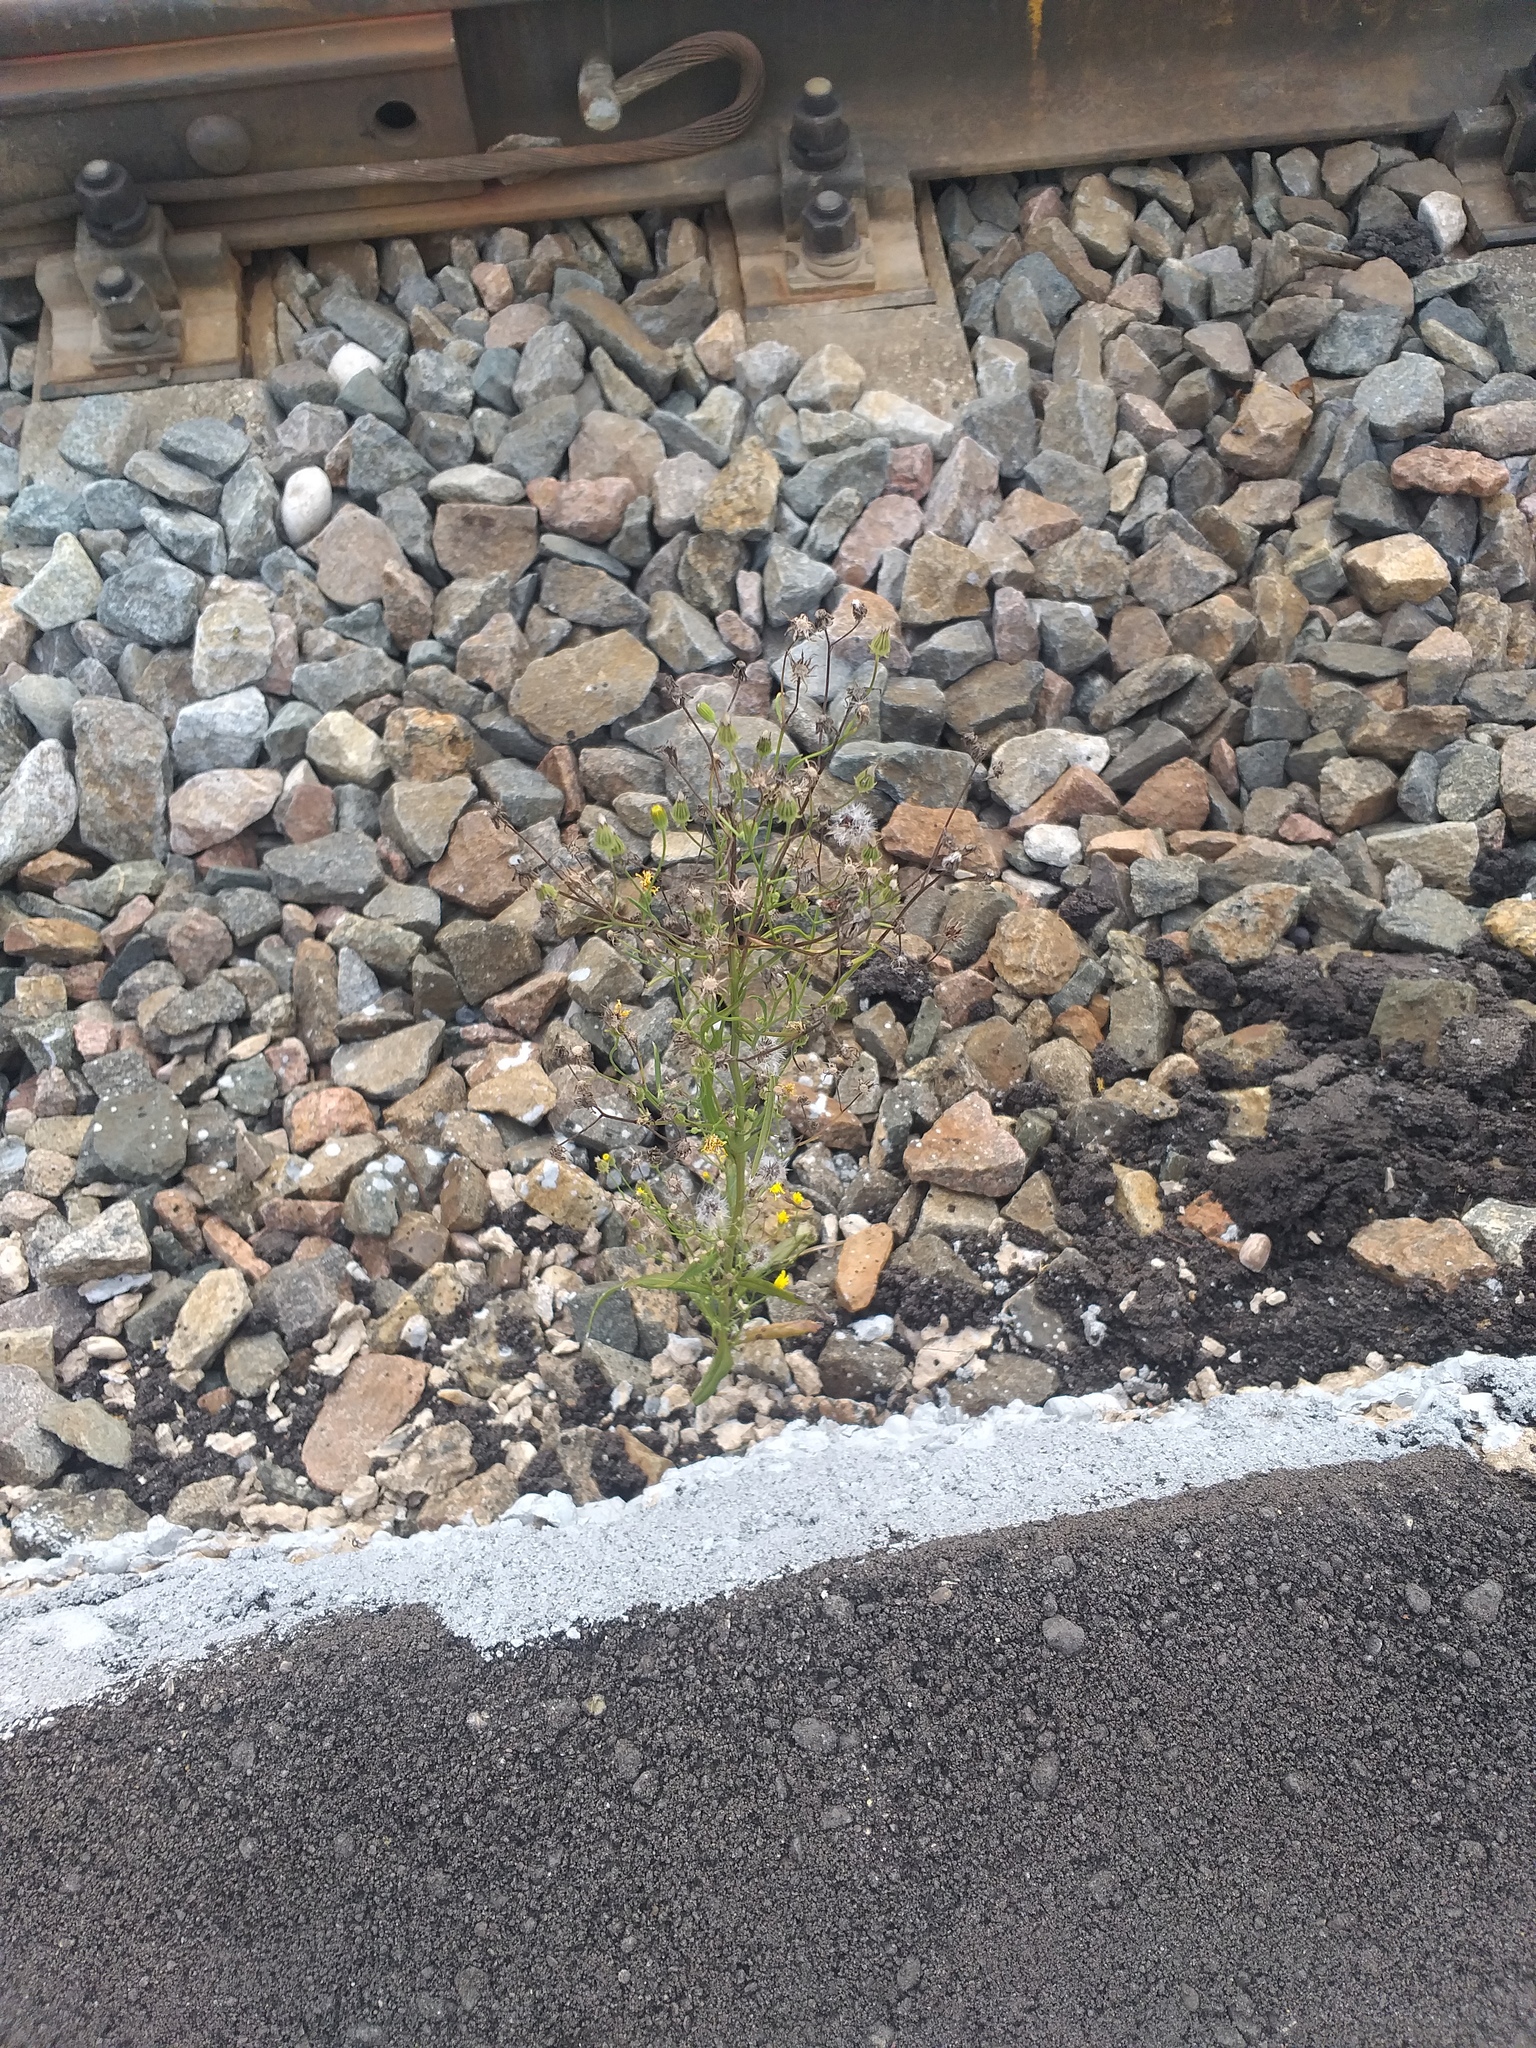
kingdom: Plantae
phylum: Tracheophyta
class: Magnoliopsida
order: Asterales
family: Asteraceae
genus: Crepis
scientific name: Crepis tectorum
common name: Narrow-leaved hawk's-beard
